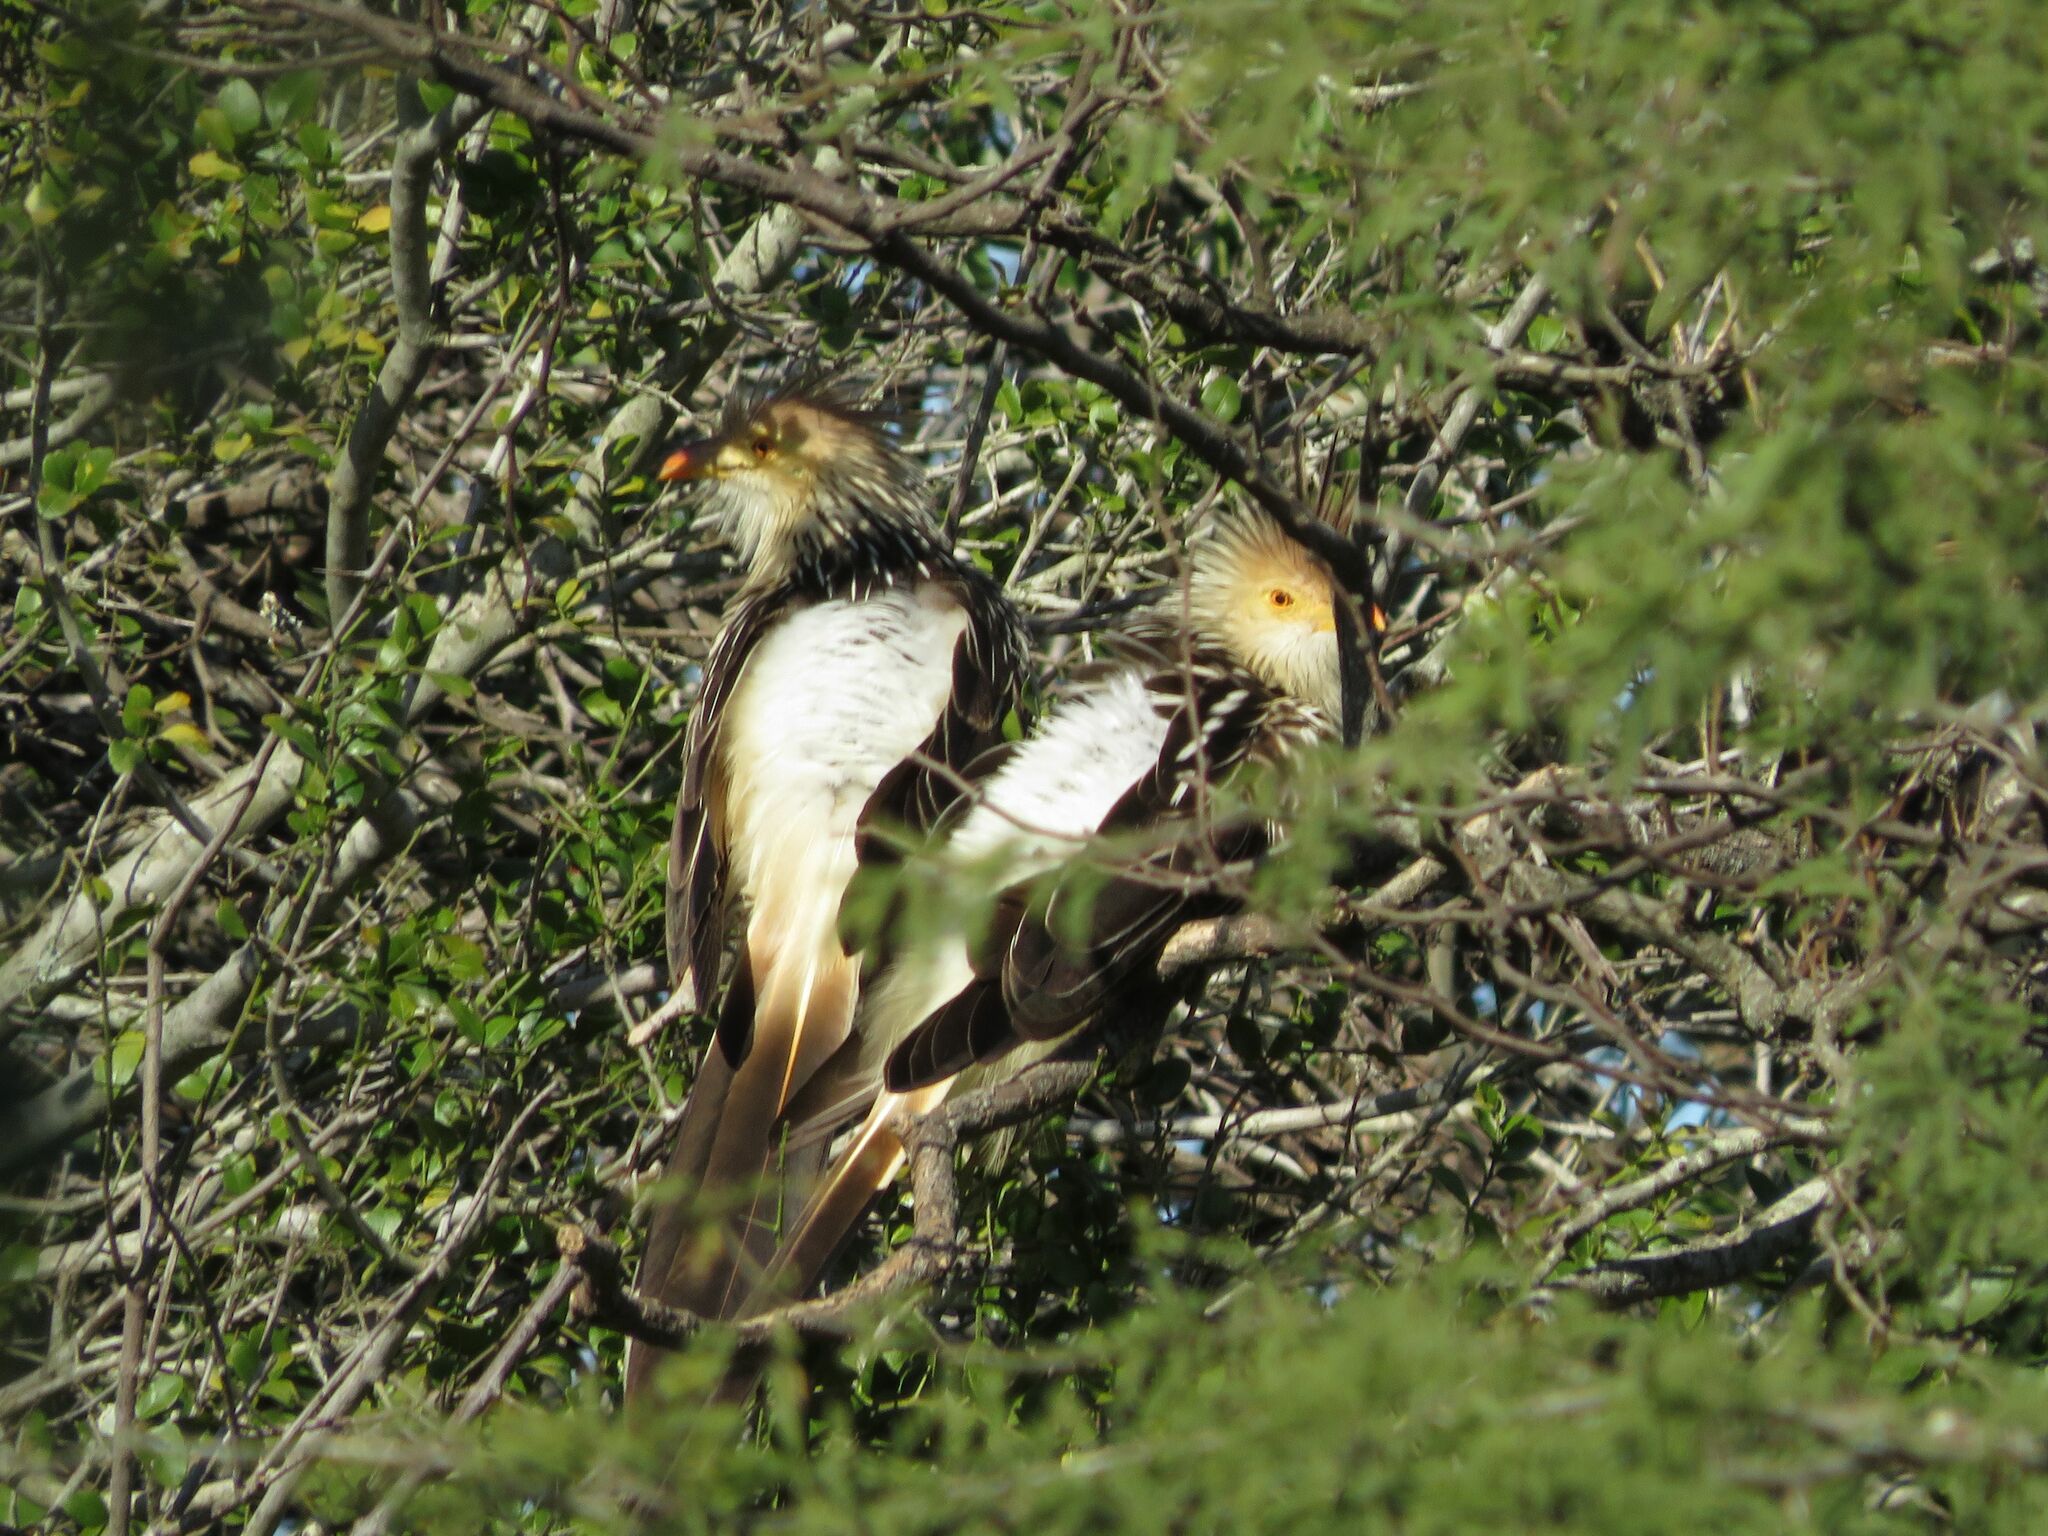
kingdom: Animalia
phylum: Chordata
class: Aves
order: Cuculiformes
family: Cuculidae
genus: Guira
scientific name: Guira guira
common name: Guira cuckoo
